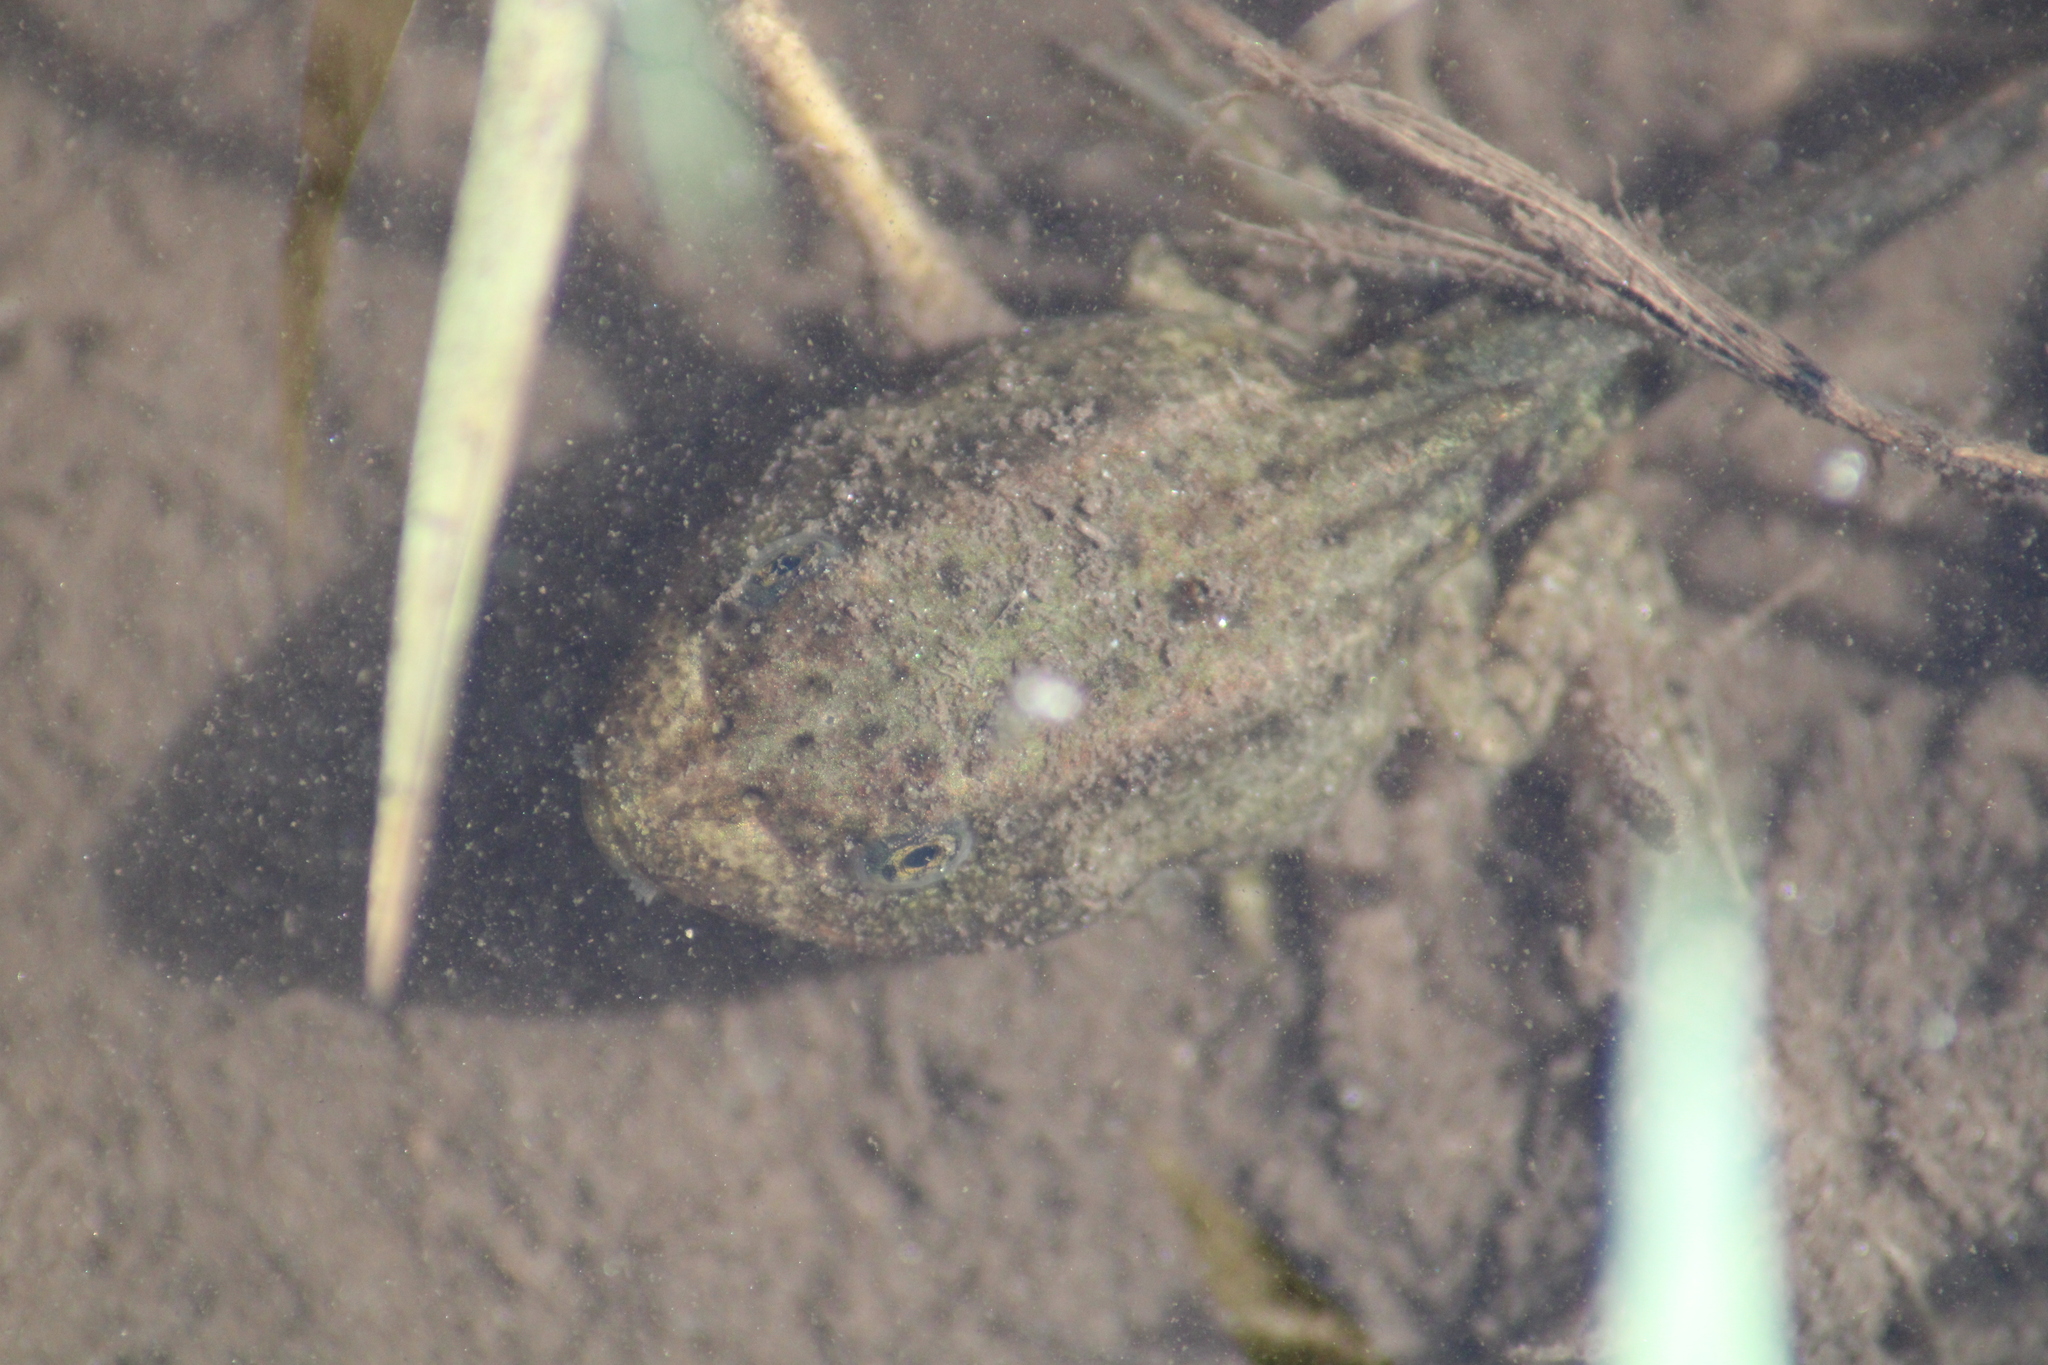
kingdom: Animalia
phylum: Chordata
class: Amphibia
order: Anura
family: Ranidae
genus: Pelophylax
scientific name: Pelophylax
